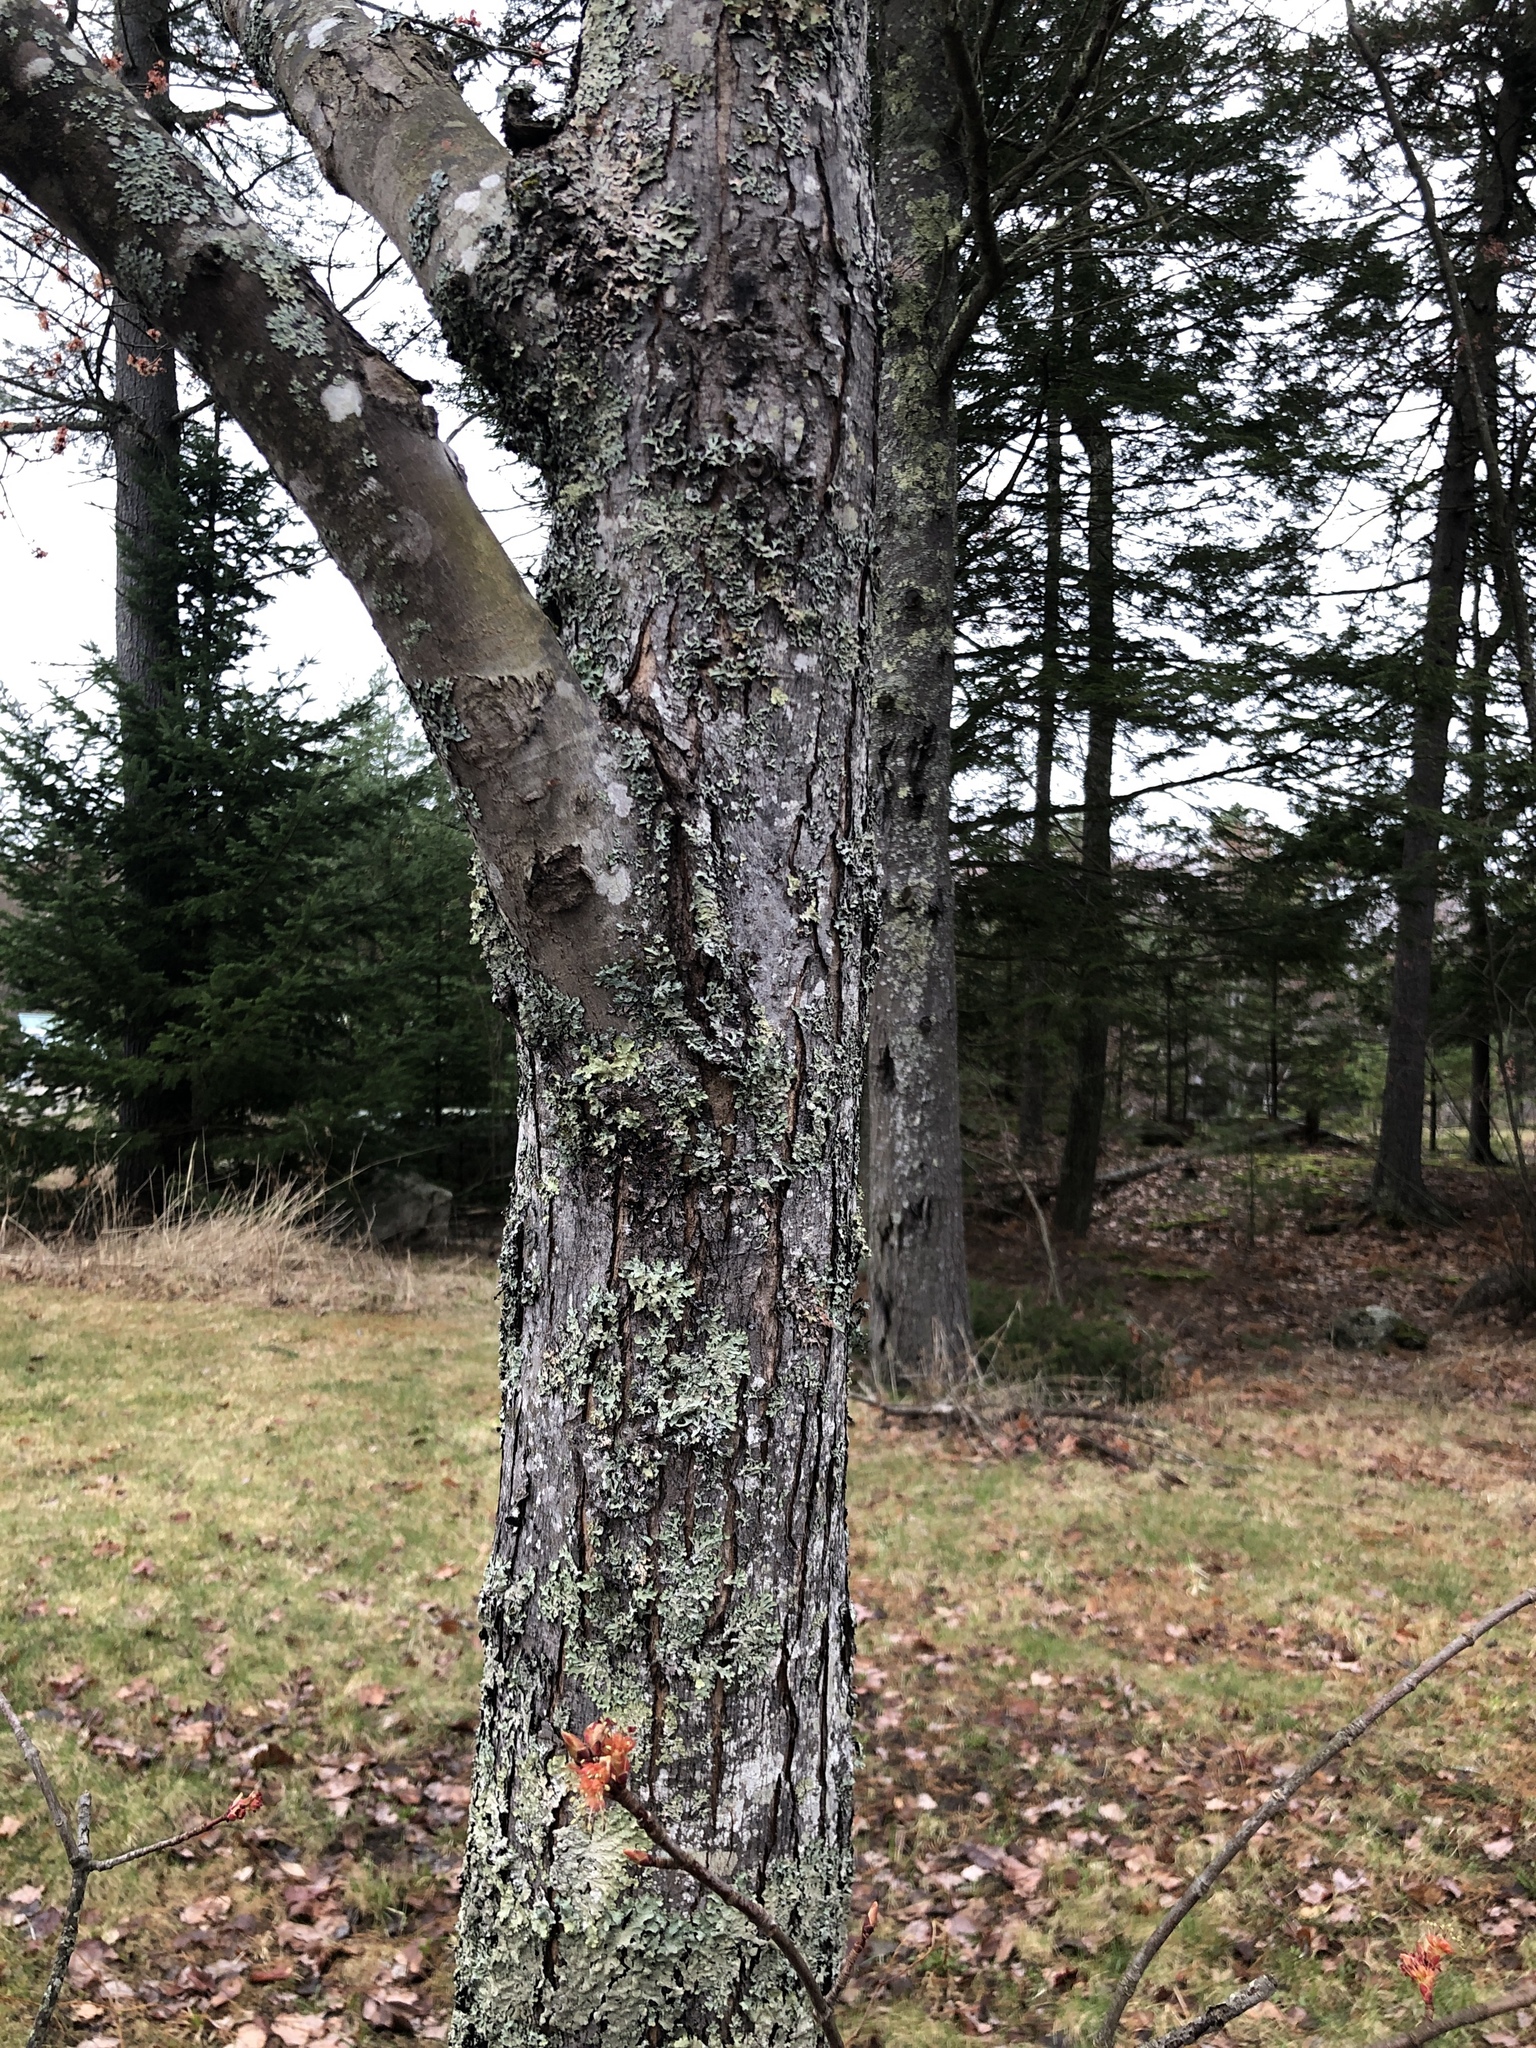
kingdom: Plantae
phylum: Tracheophyta
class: Magnoliopsida
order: Sapindales
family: Sapindaceae
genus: Acer
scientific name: Acer rubrum
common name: Red maple
